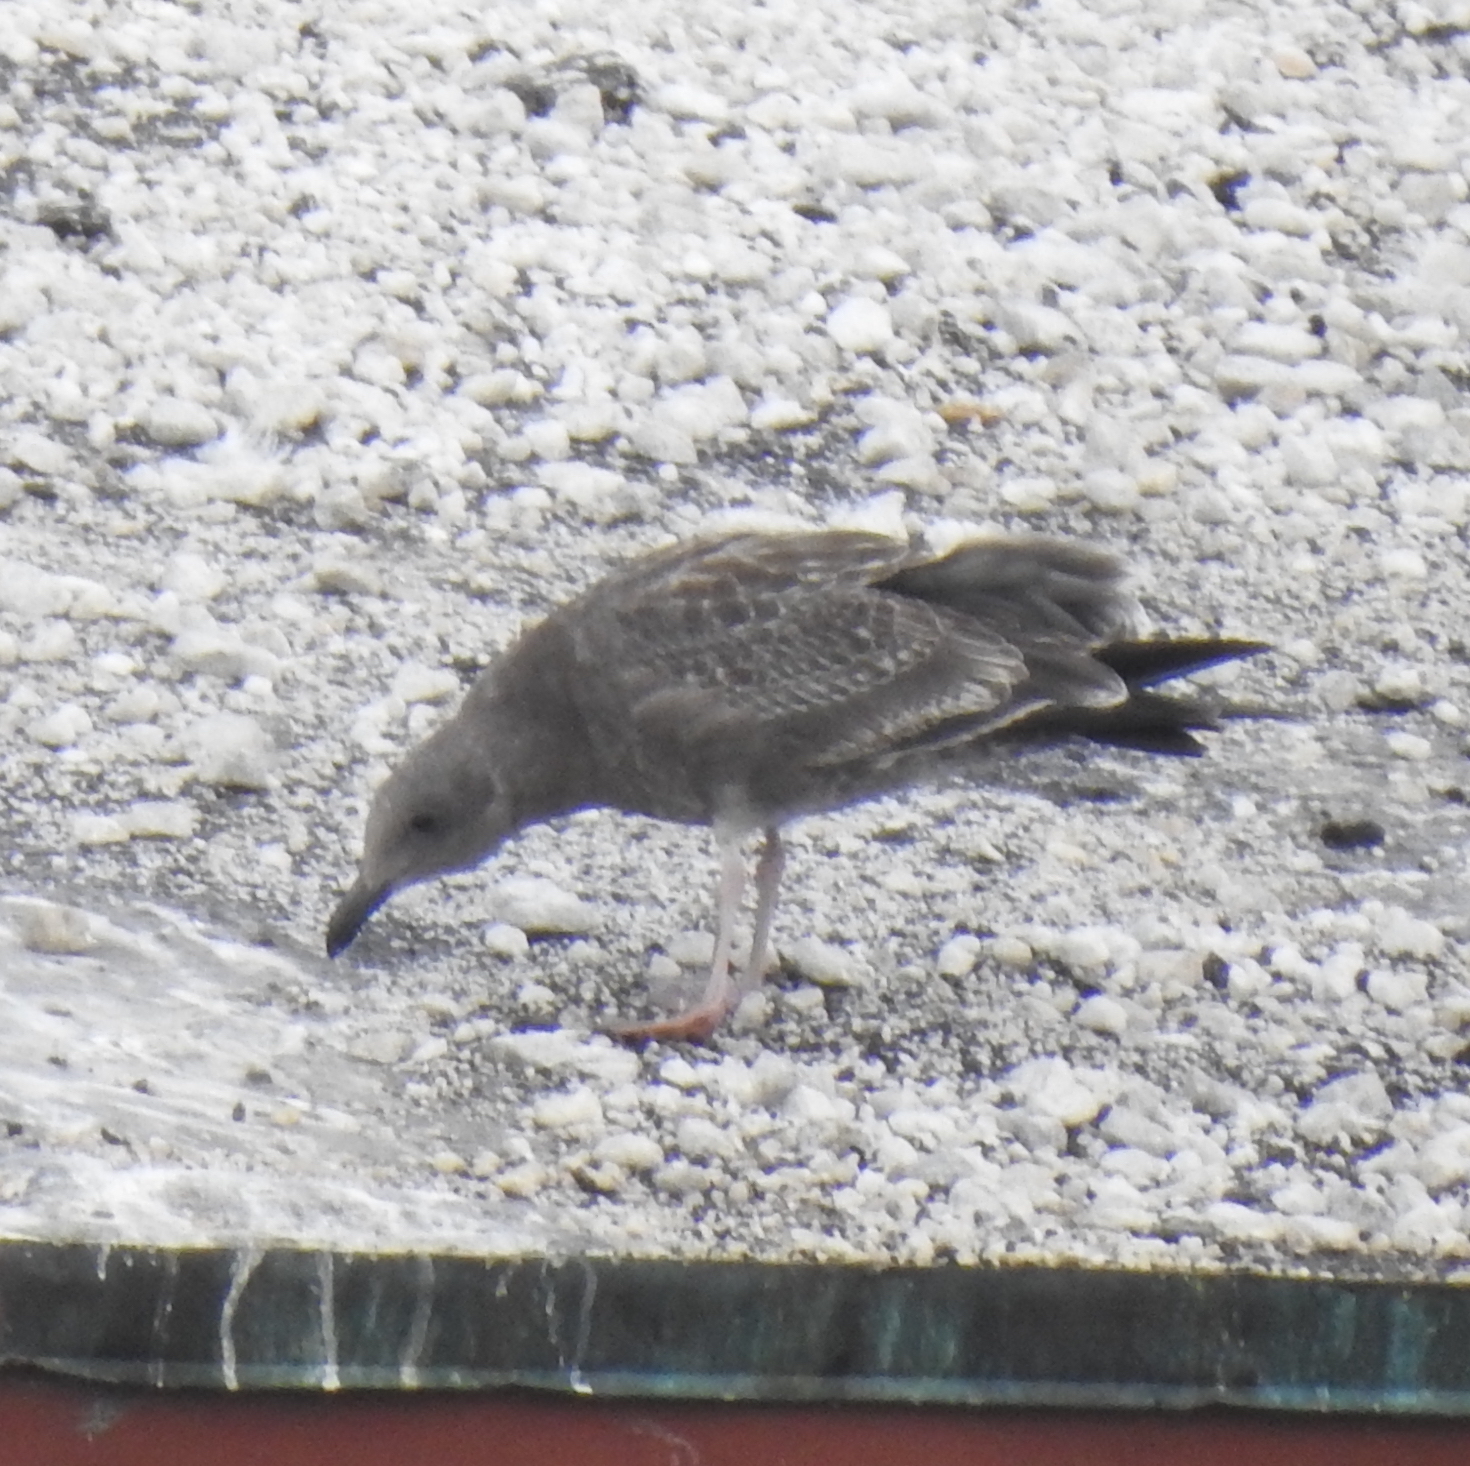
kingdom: Animalia
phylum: Chordata
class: Aves
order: Charadriiformes
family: Laridae
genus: Larus
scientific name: Larus occidentalis
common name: Western gull
